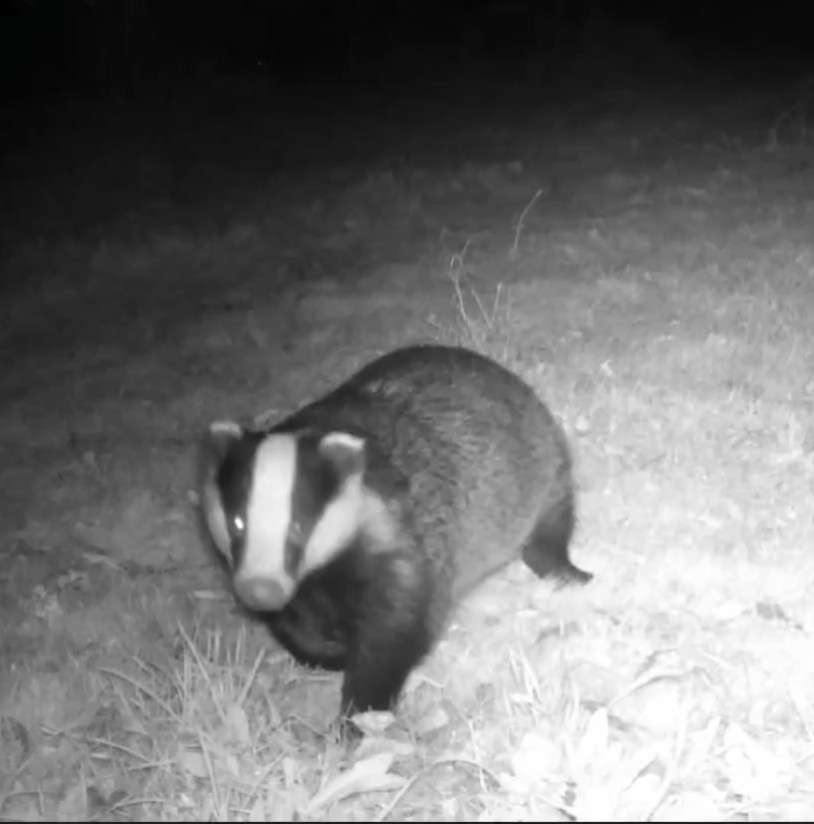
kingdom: Animalia
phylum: Chordata
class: Mammalia
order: Carnivora
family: Mustelidae
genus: Meles
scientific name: Meles meles
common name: Eurasian badger
